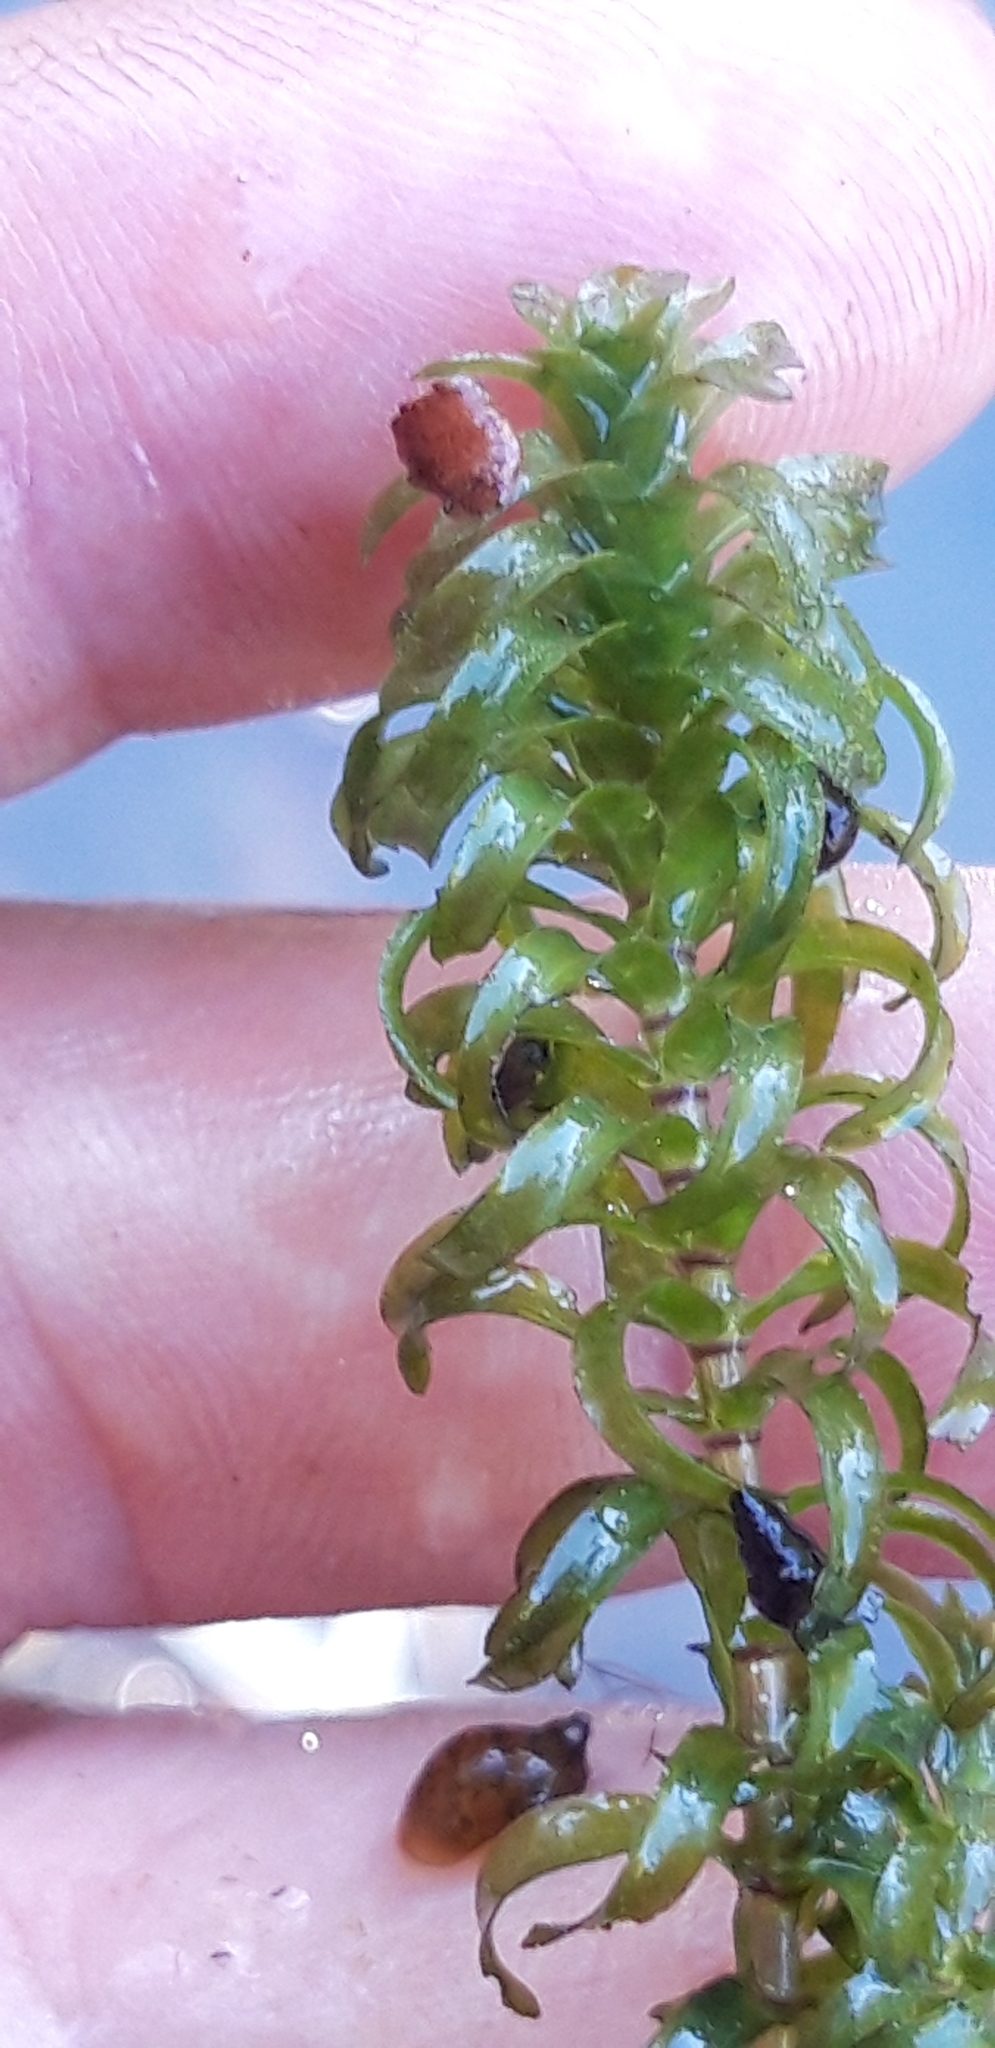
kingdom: Plantae
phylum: Tracheophyta
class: Liliopsida
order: Alismatales
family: Hydrocharitaceae
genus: Elodea
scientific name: Elodea nuttallii
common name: Nuttall's waterweed
